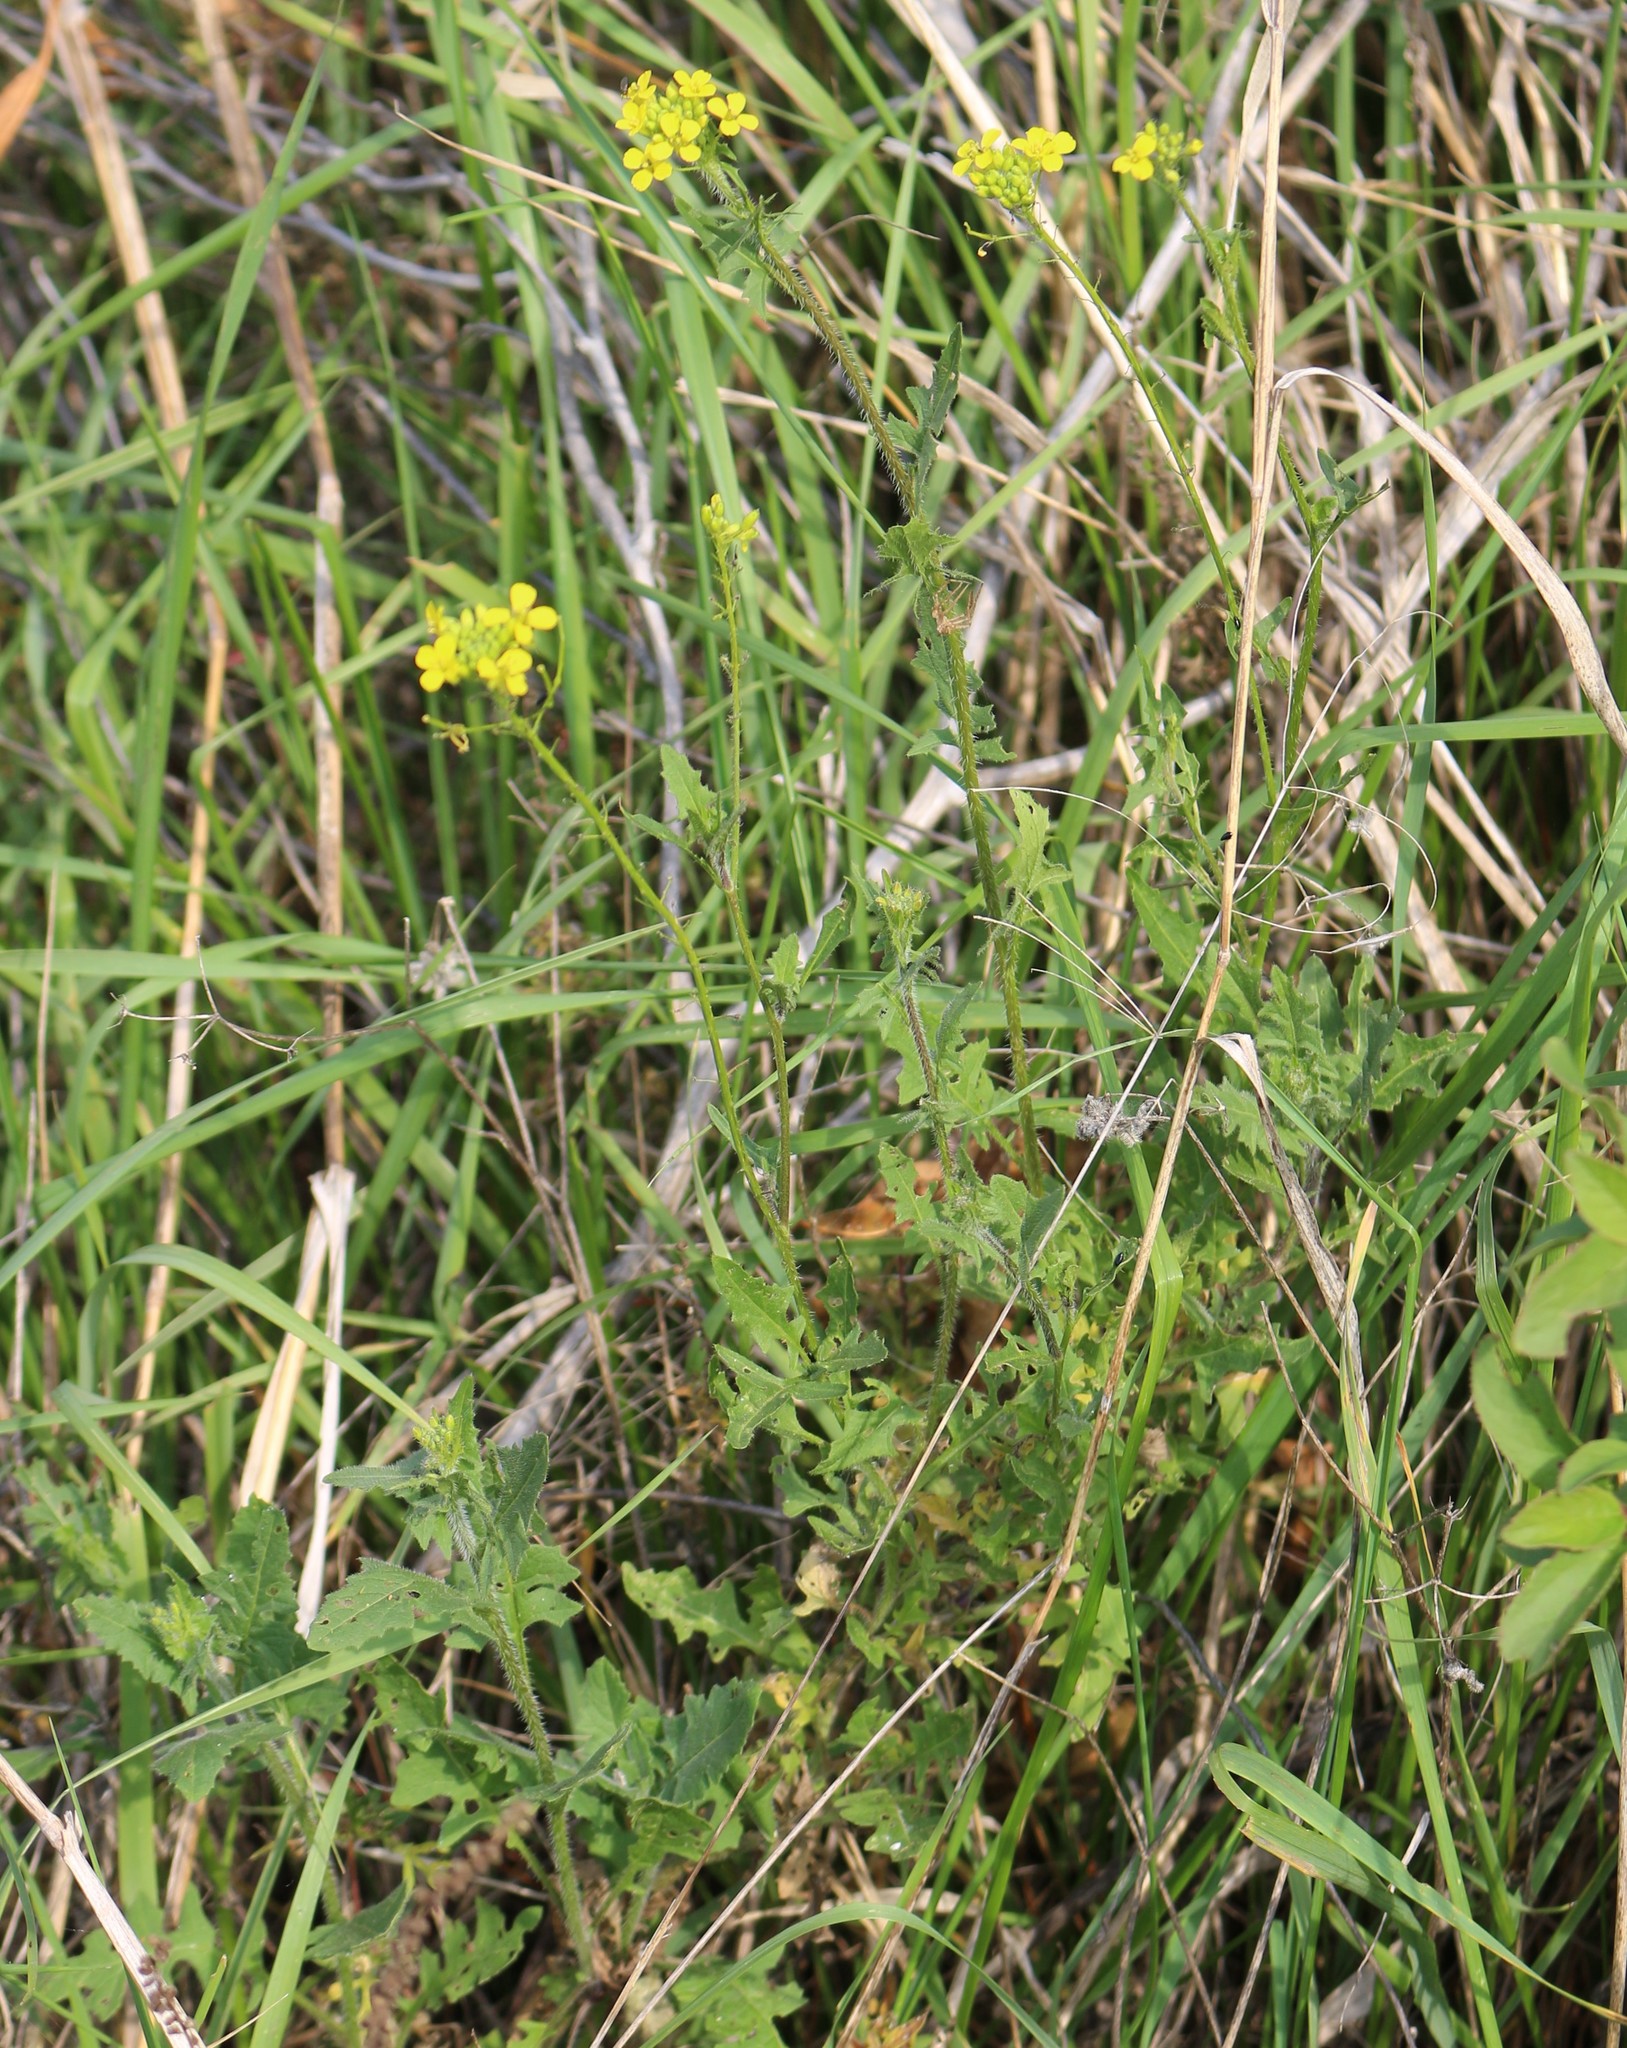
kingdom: Plantae
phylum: Tracheophyta
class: Magnoliopsida
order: Brassicales
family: Brassicaceae
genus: Sisymbrium
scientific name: Sisymbrium loeselii
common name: False london-rocket
